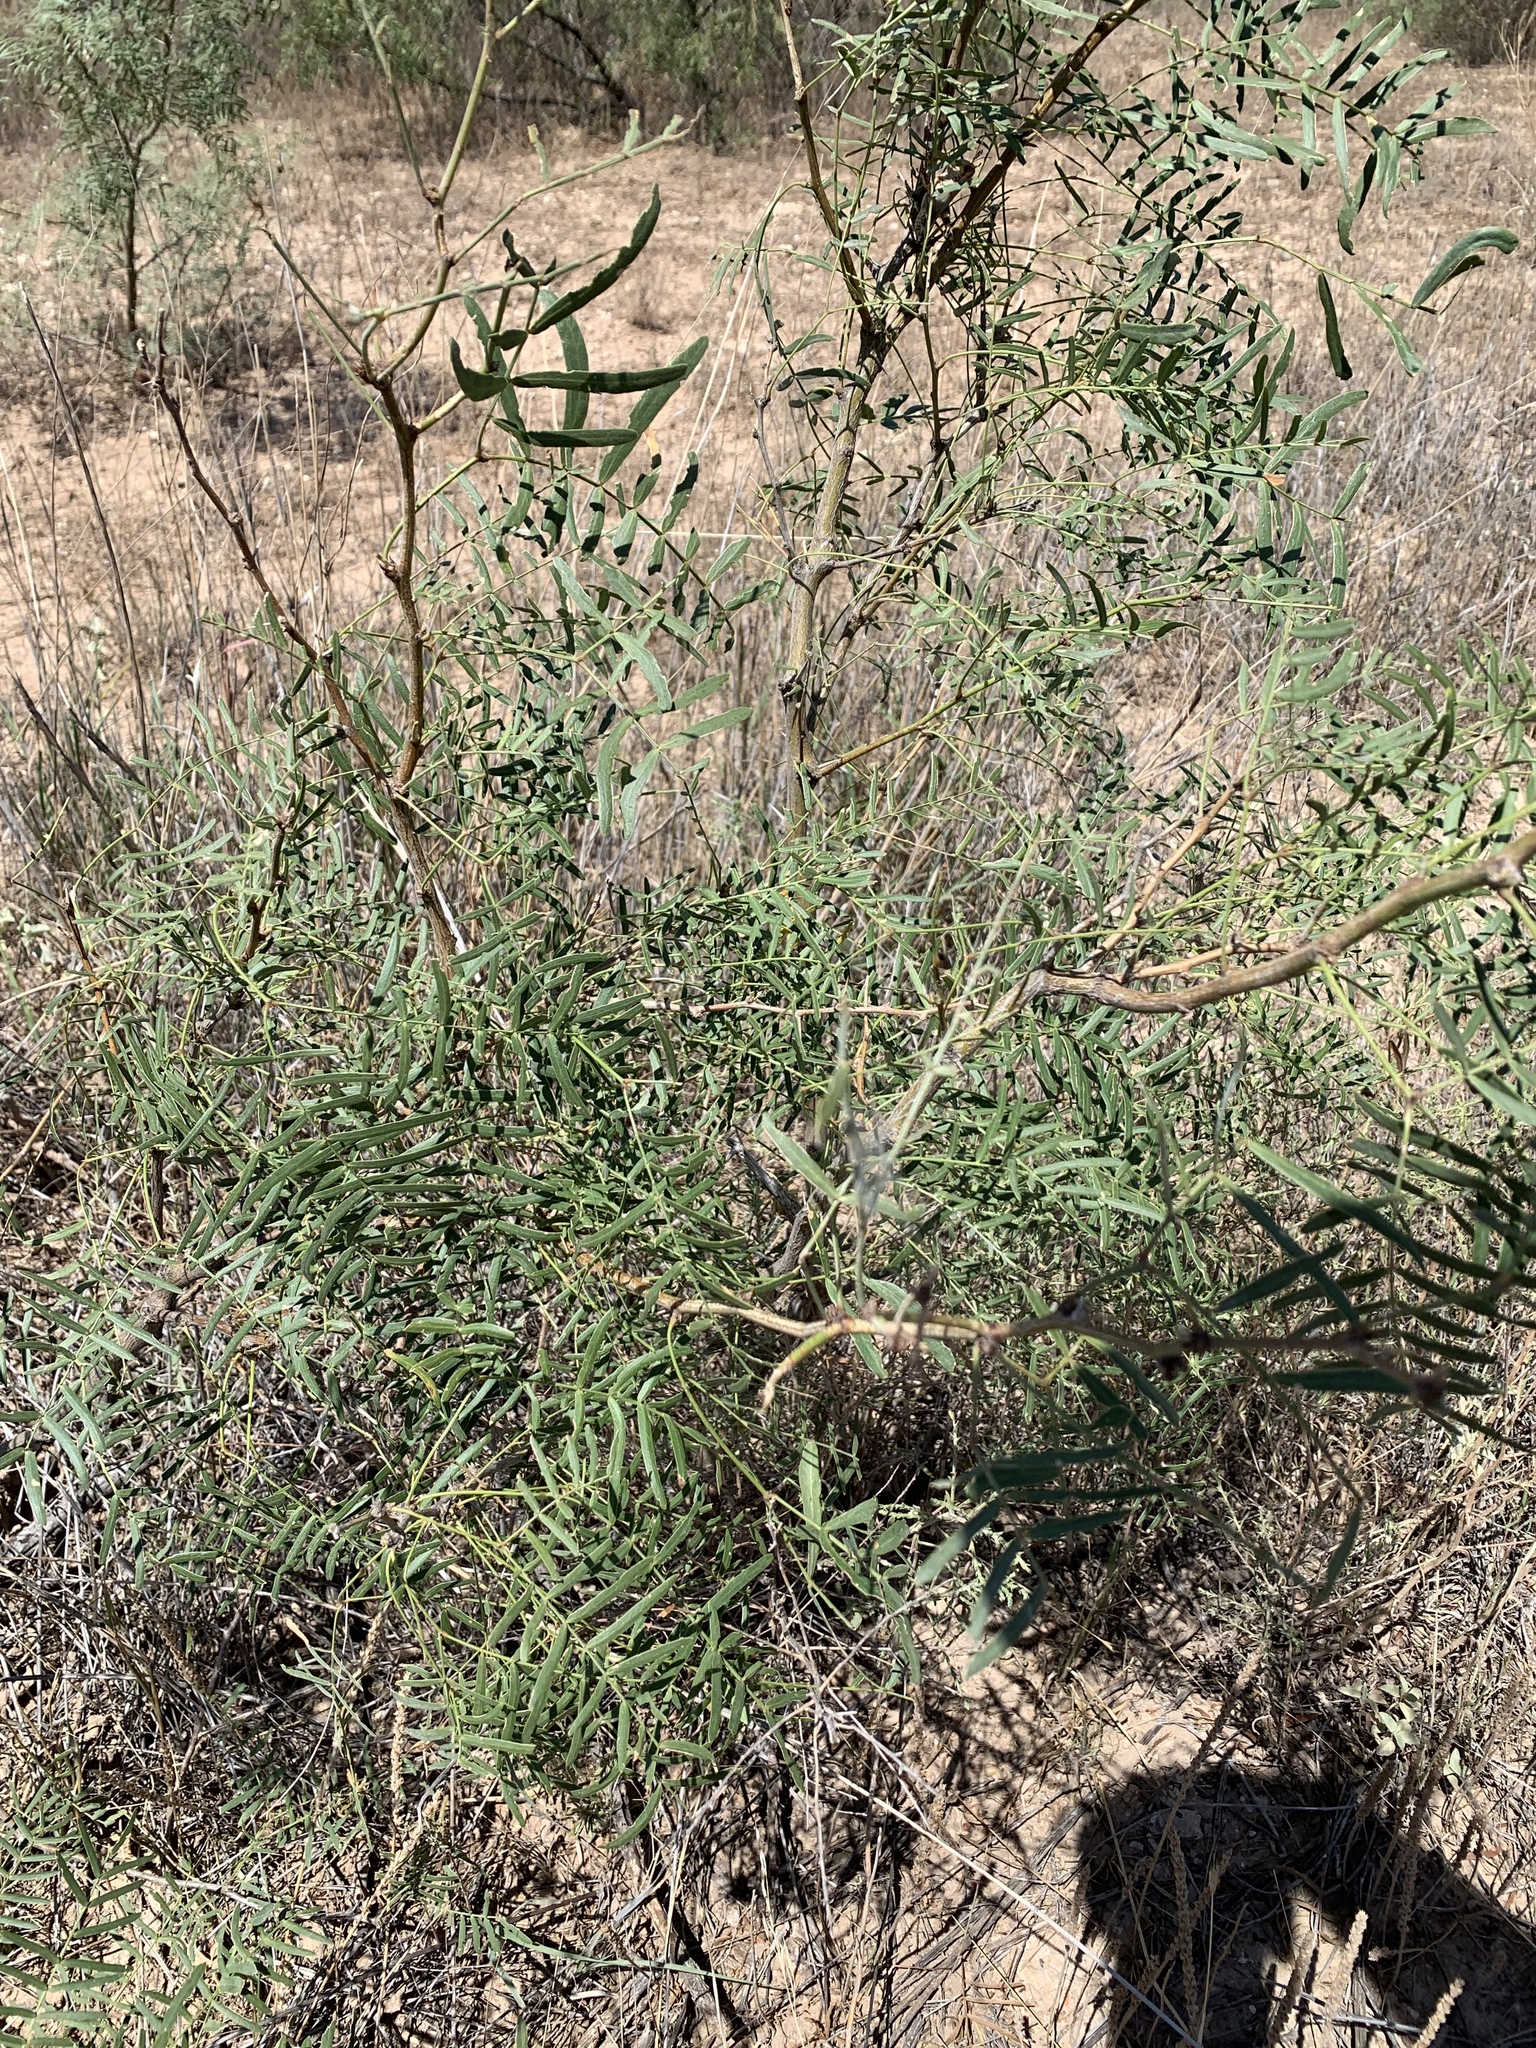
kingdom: Plantae
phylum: Tracheophyta
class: Magnoliopsida
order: Fabales
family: Fabaceae
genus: Prosopis
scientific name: Prosopis glandulosa
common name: Honey mesquite
